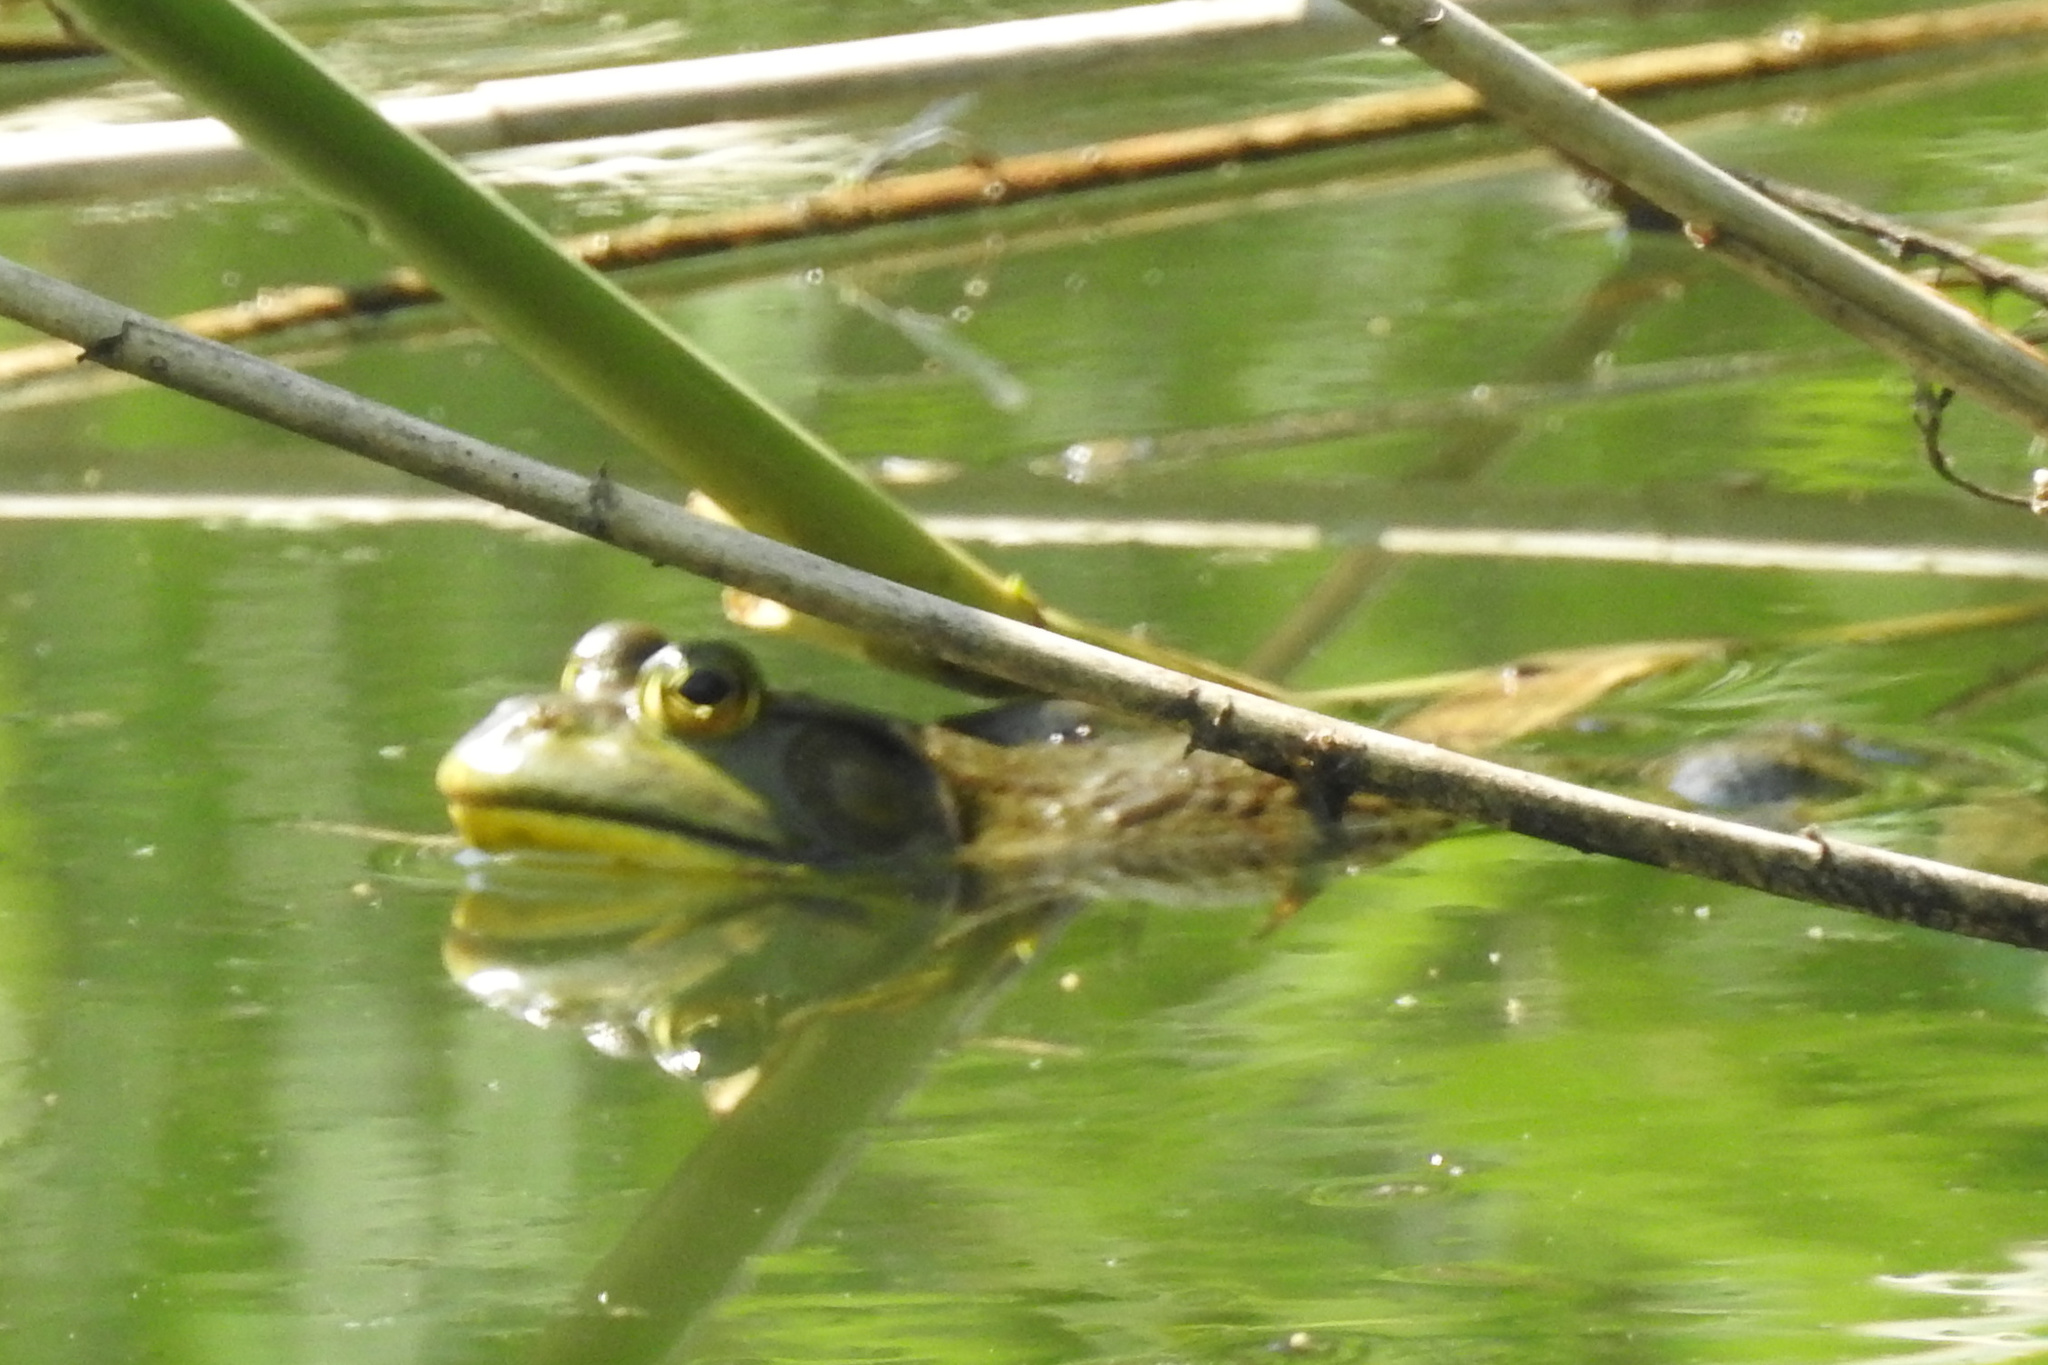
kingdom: Animalia
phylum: Chordata
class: Amphibia
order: Anura
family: Ranidae
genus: Lithobates
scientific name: Lithobates catesbeianus
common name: American bullfrog
